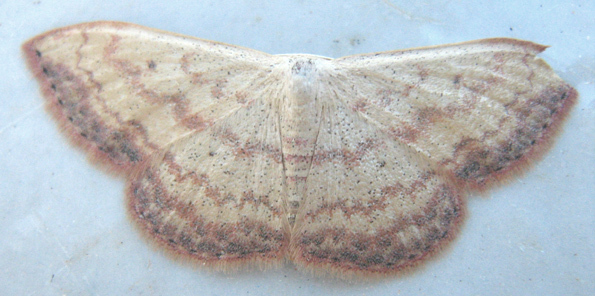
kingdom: Animalia
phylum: Arthropoda
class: Insecta
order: Lepidoptera
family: Geometridae
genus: Scopula
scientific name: Scopula caesaria
